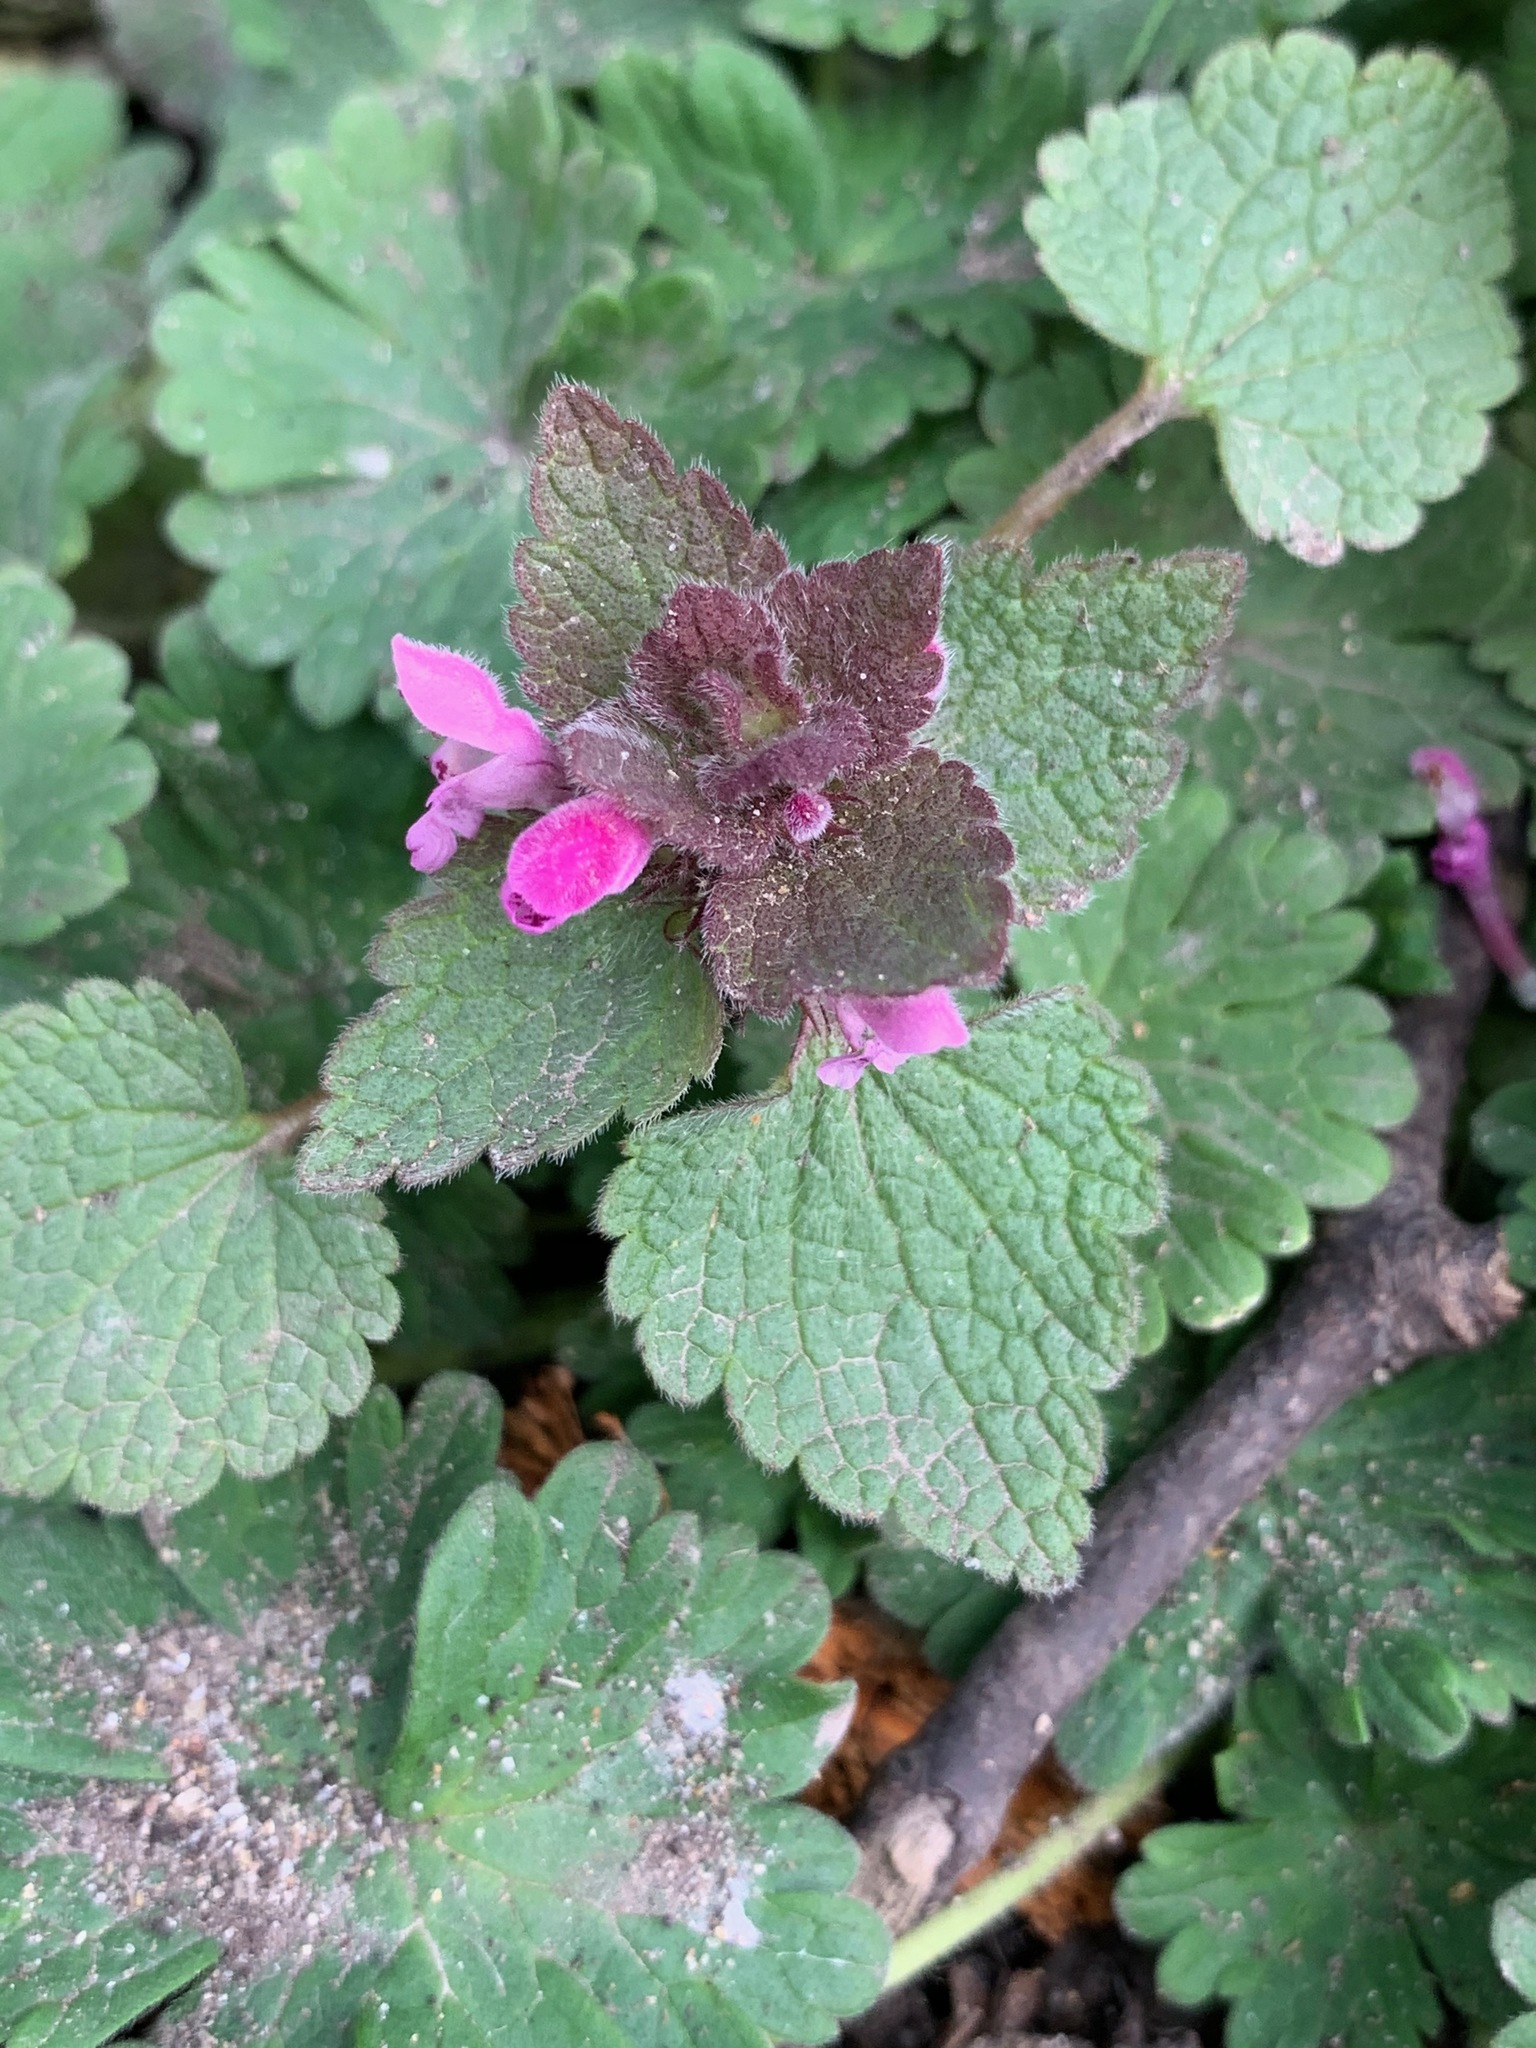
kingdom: Plantae
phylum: Tracheophyta
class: Magnoliopsida
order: Lamiales
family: Lamiaceae
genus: Lamium
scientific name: Lamium purpureum
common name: Red dead-nettle
